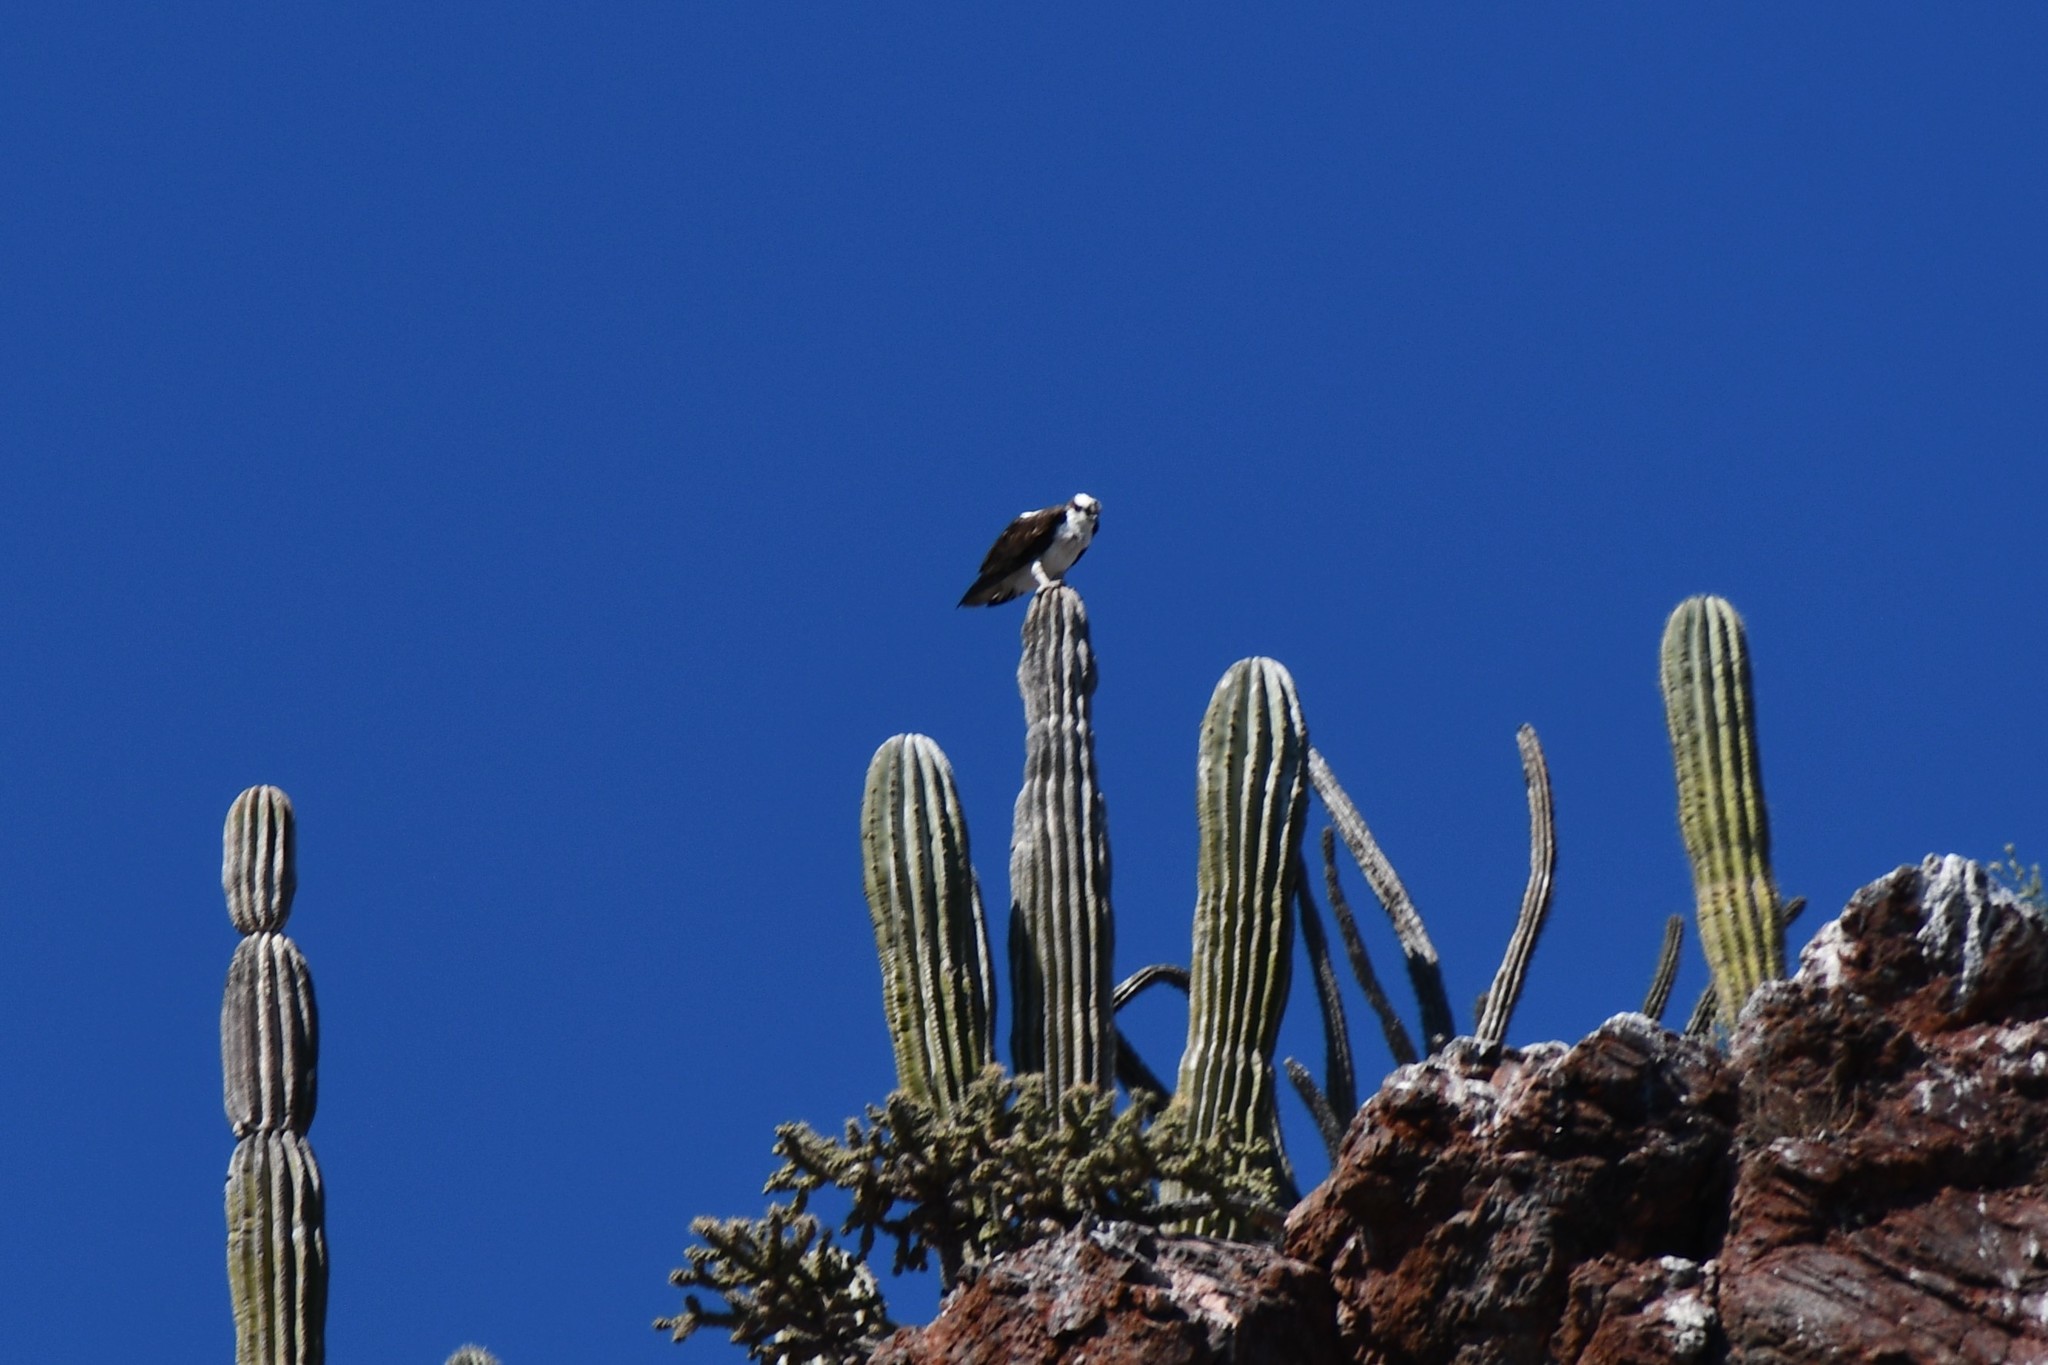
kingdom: Animalia
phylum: Chordata
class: Aves
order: Accipitriformes
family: Pandionidae
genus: Pandion
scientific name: Pandion haliaetus
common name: Osprey
